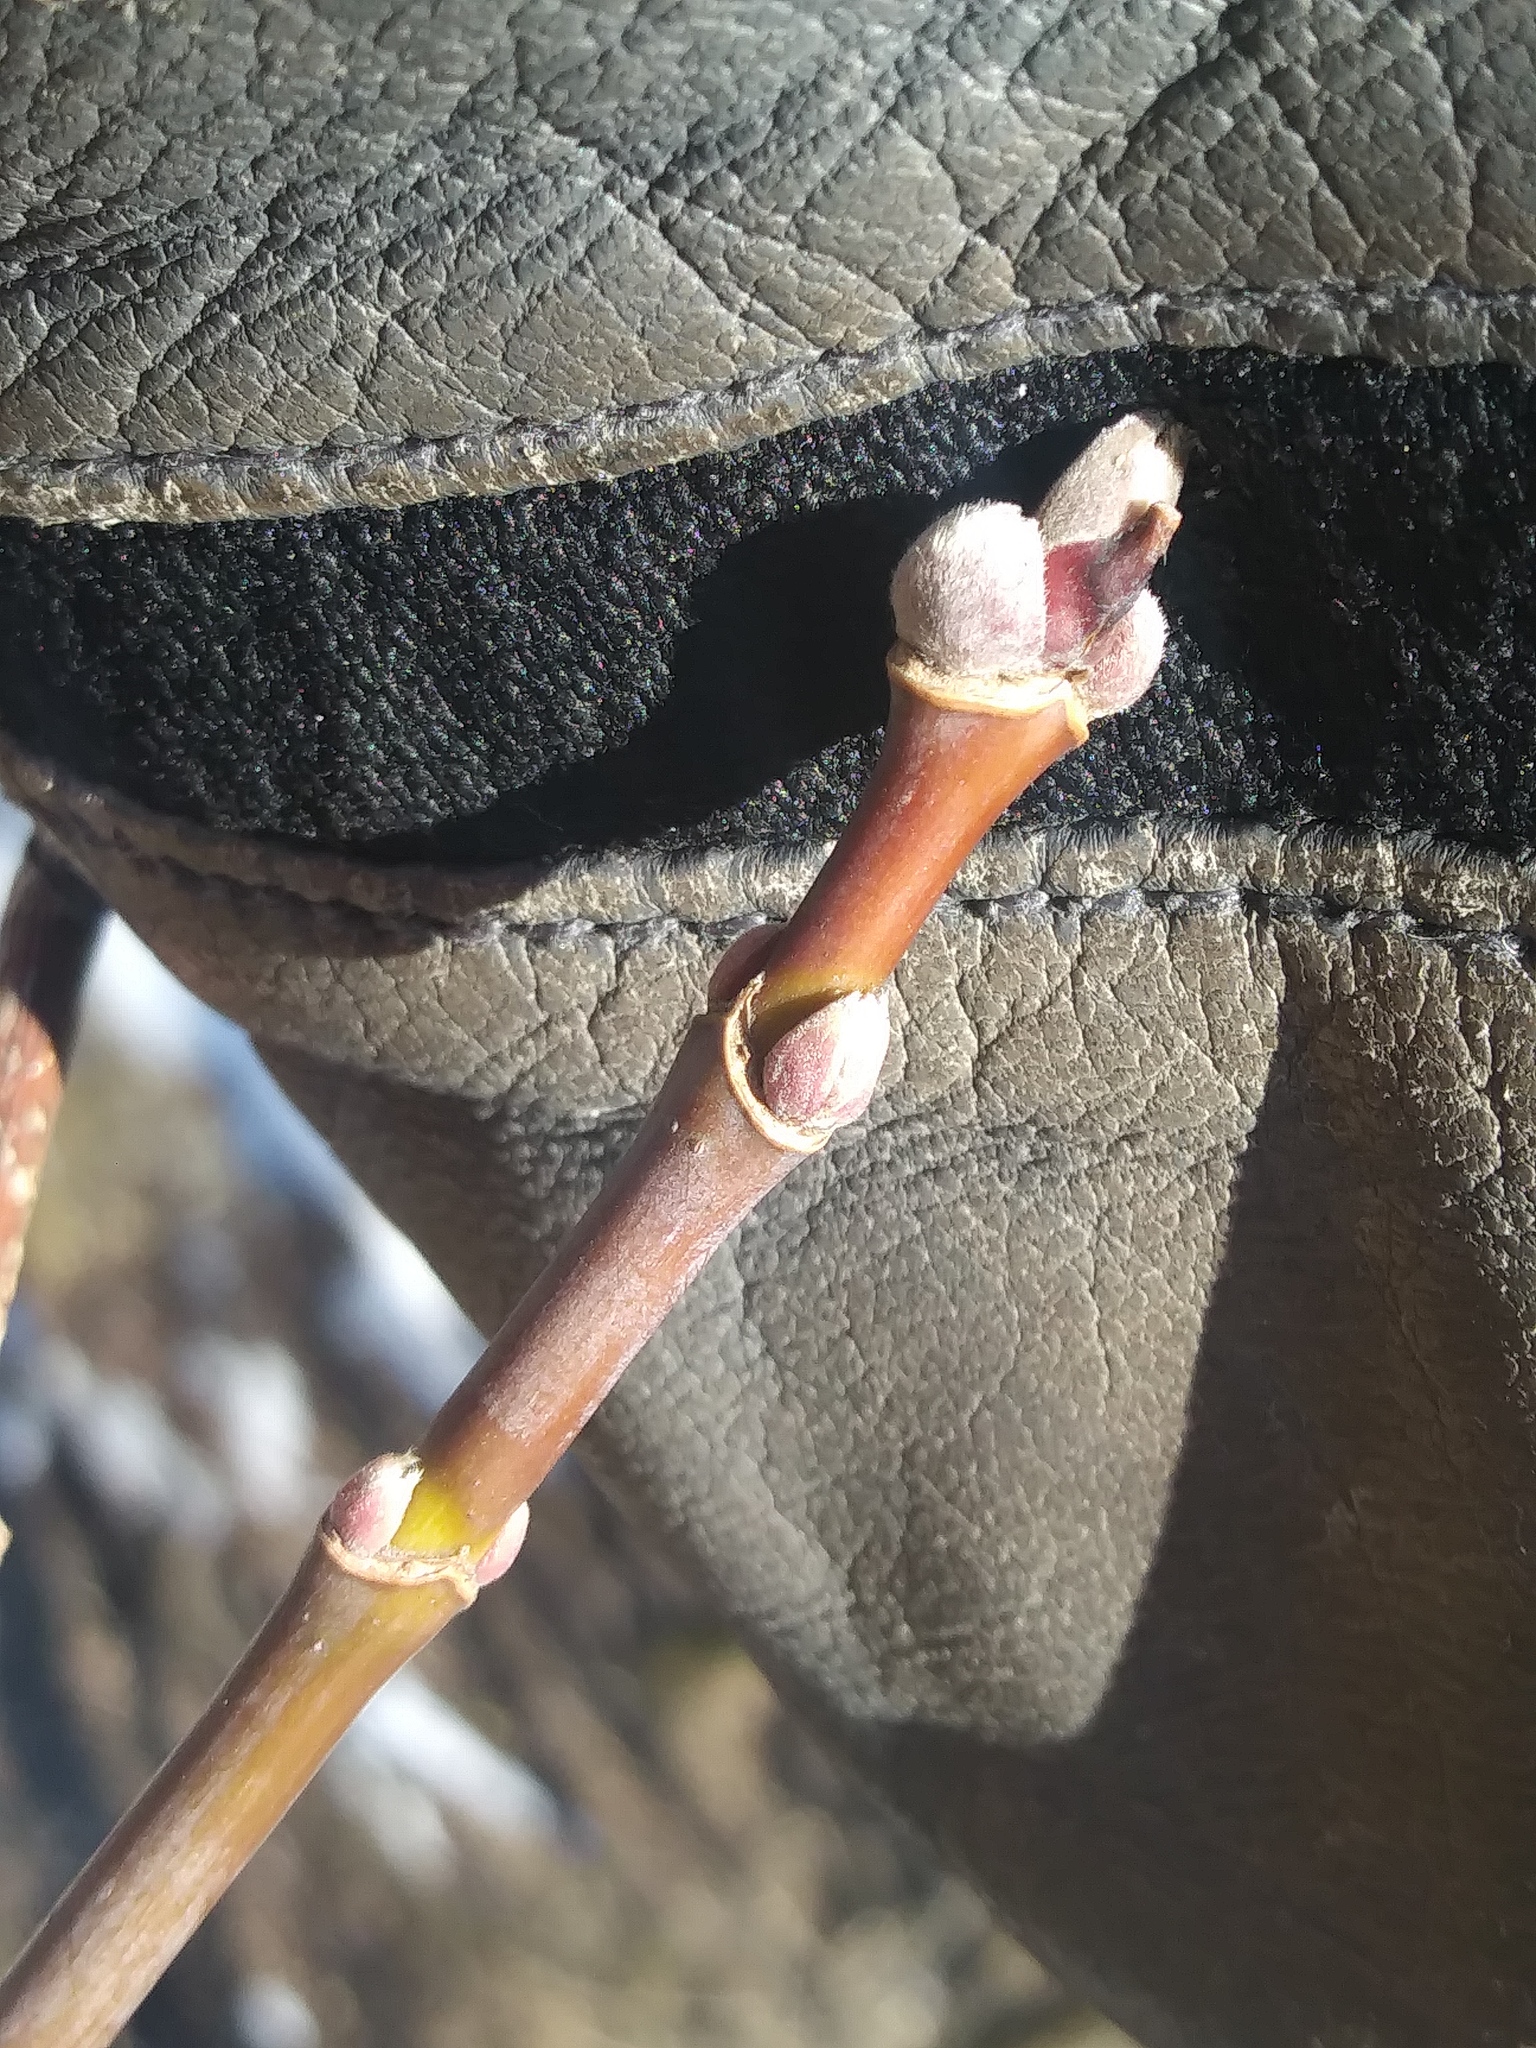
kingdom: Plantae
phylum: Tracheophyta
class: Magnoliopsida
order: Sapindales
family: Sapindaceae
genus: Acer
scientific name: Acer negundo
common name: Ashleaf maple
